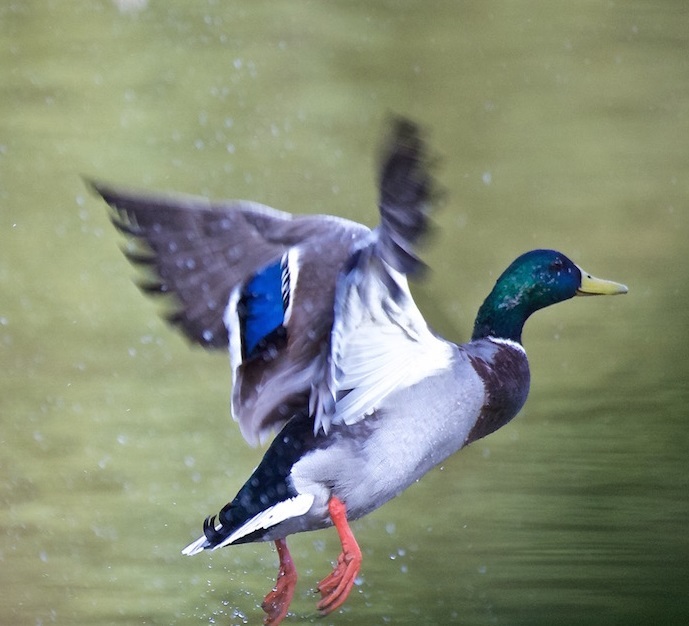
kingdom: Animalia
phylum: Chordata
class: Aves
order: Anseriformes
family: Anatidae
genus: Anas
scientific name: Anas platyrhynchos
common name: Mallard
